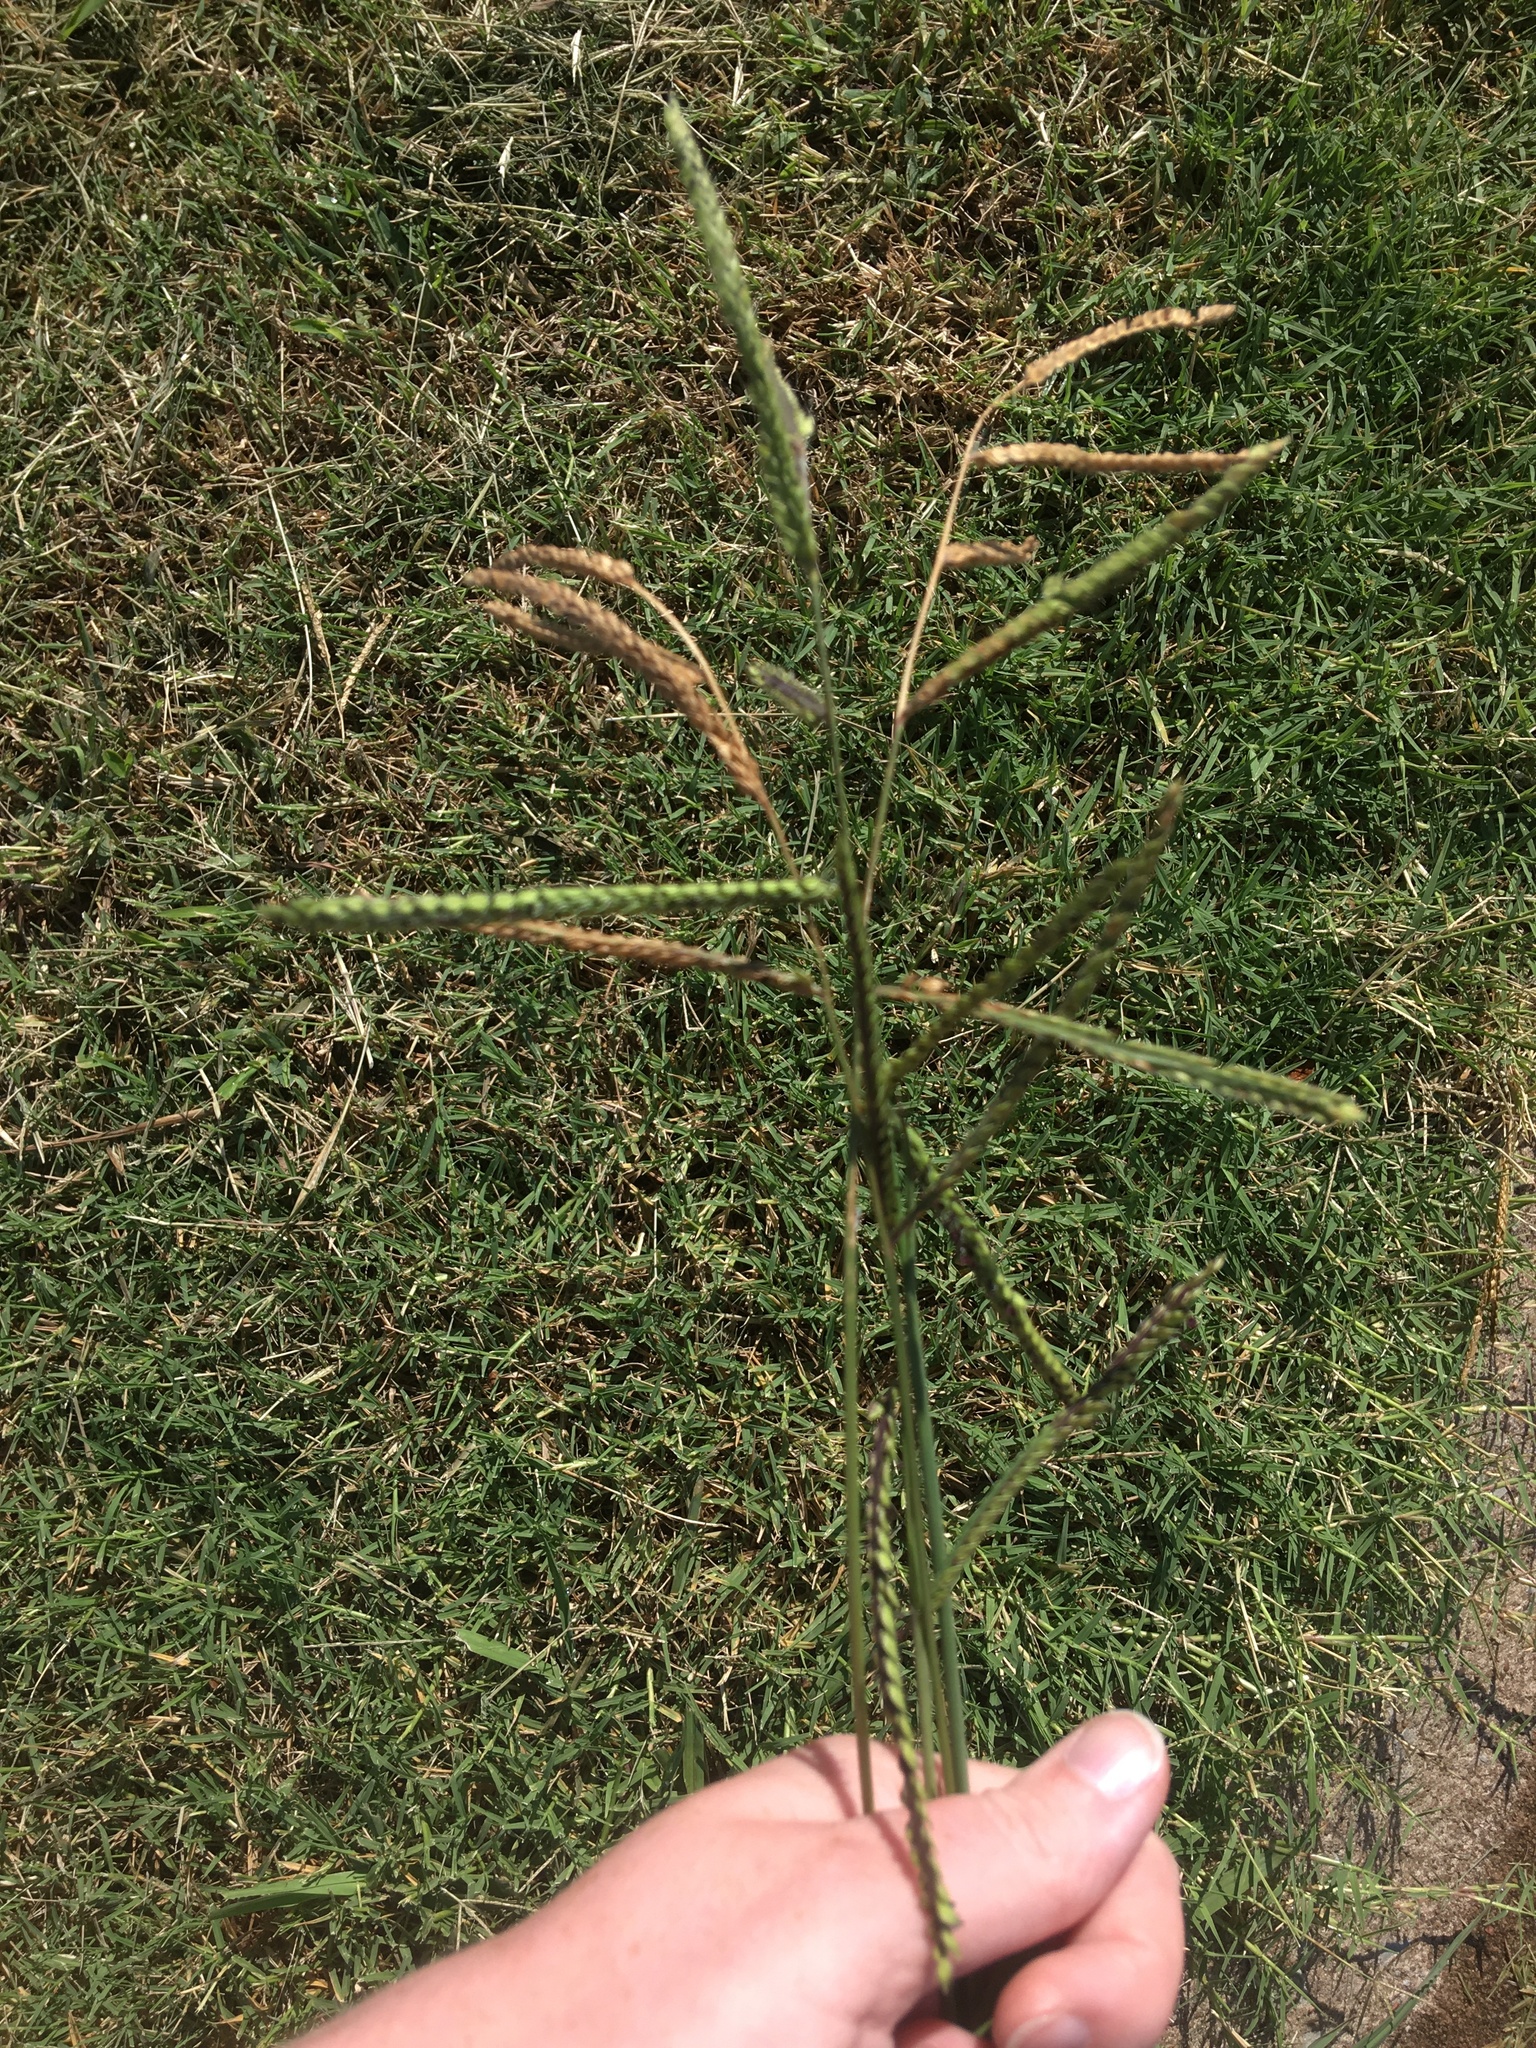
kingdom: Plantae
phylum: Tracheophyta
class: Liliopsida
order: Poales
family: Poaceae
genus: Paspalum
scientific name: Paspalum dilatatum
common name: Dallisgrass
